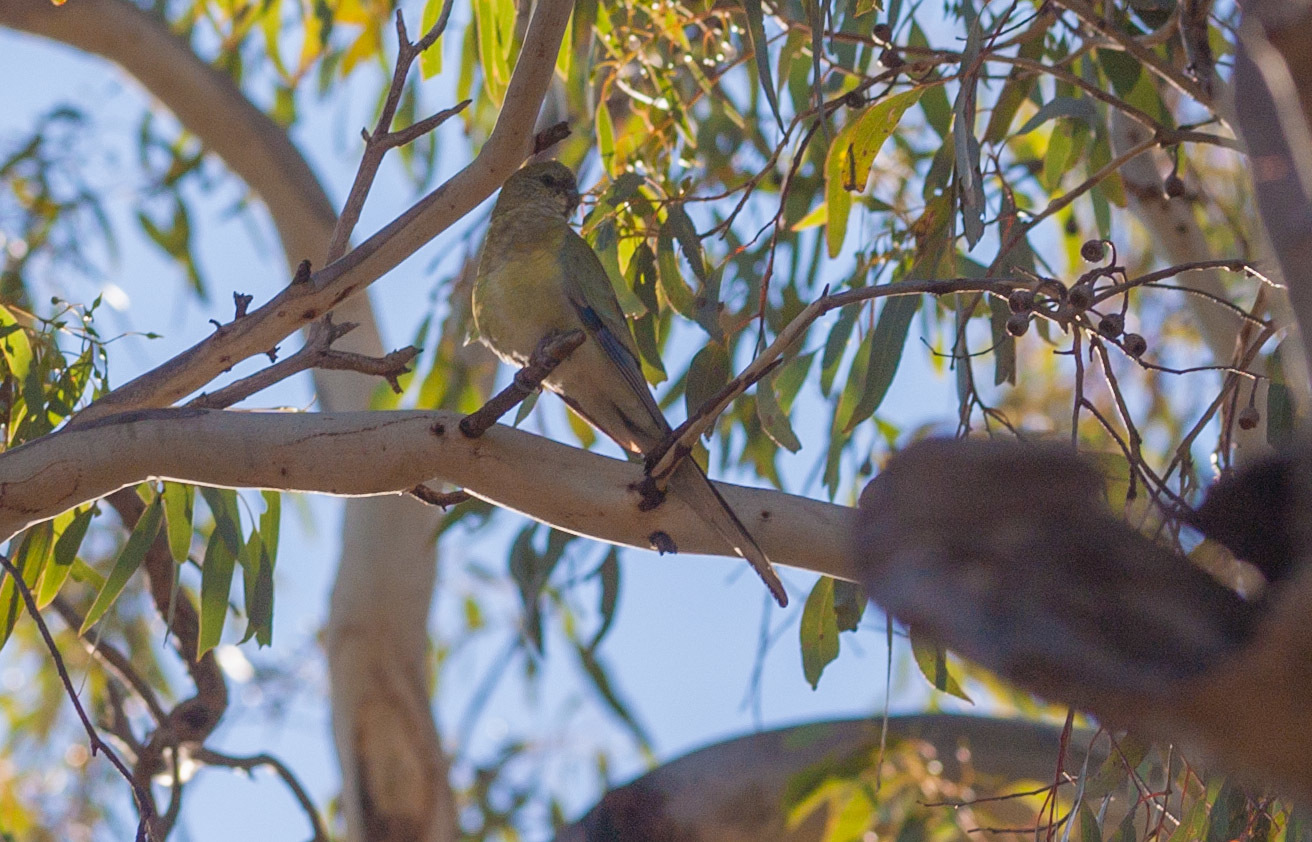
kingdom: Animalia
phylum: Chordata
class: Aves
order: Psittaciformes
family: Psittacidae
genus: Psephotus
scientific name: Psephotus haematonotus
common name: Red-rumped parrot
